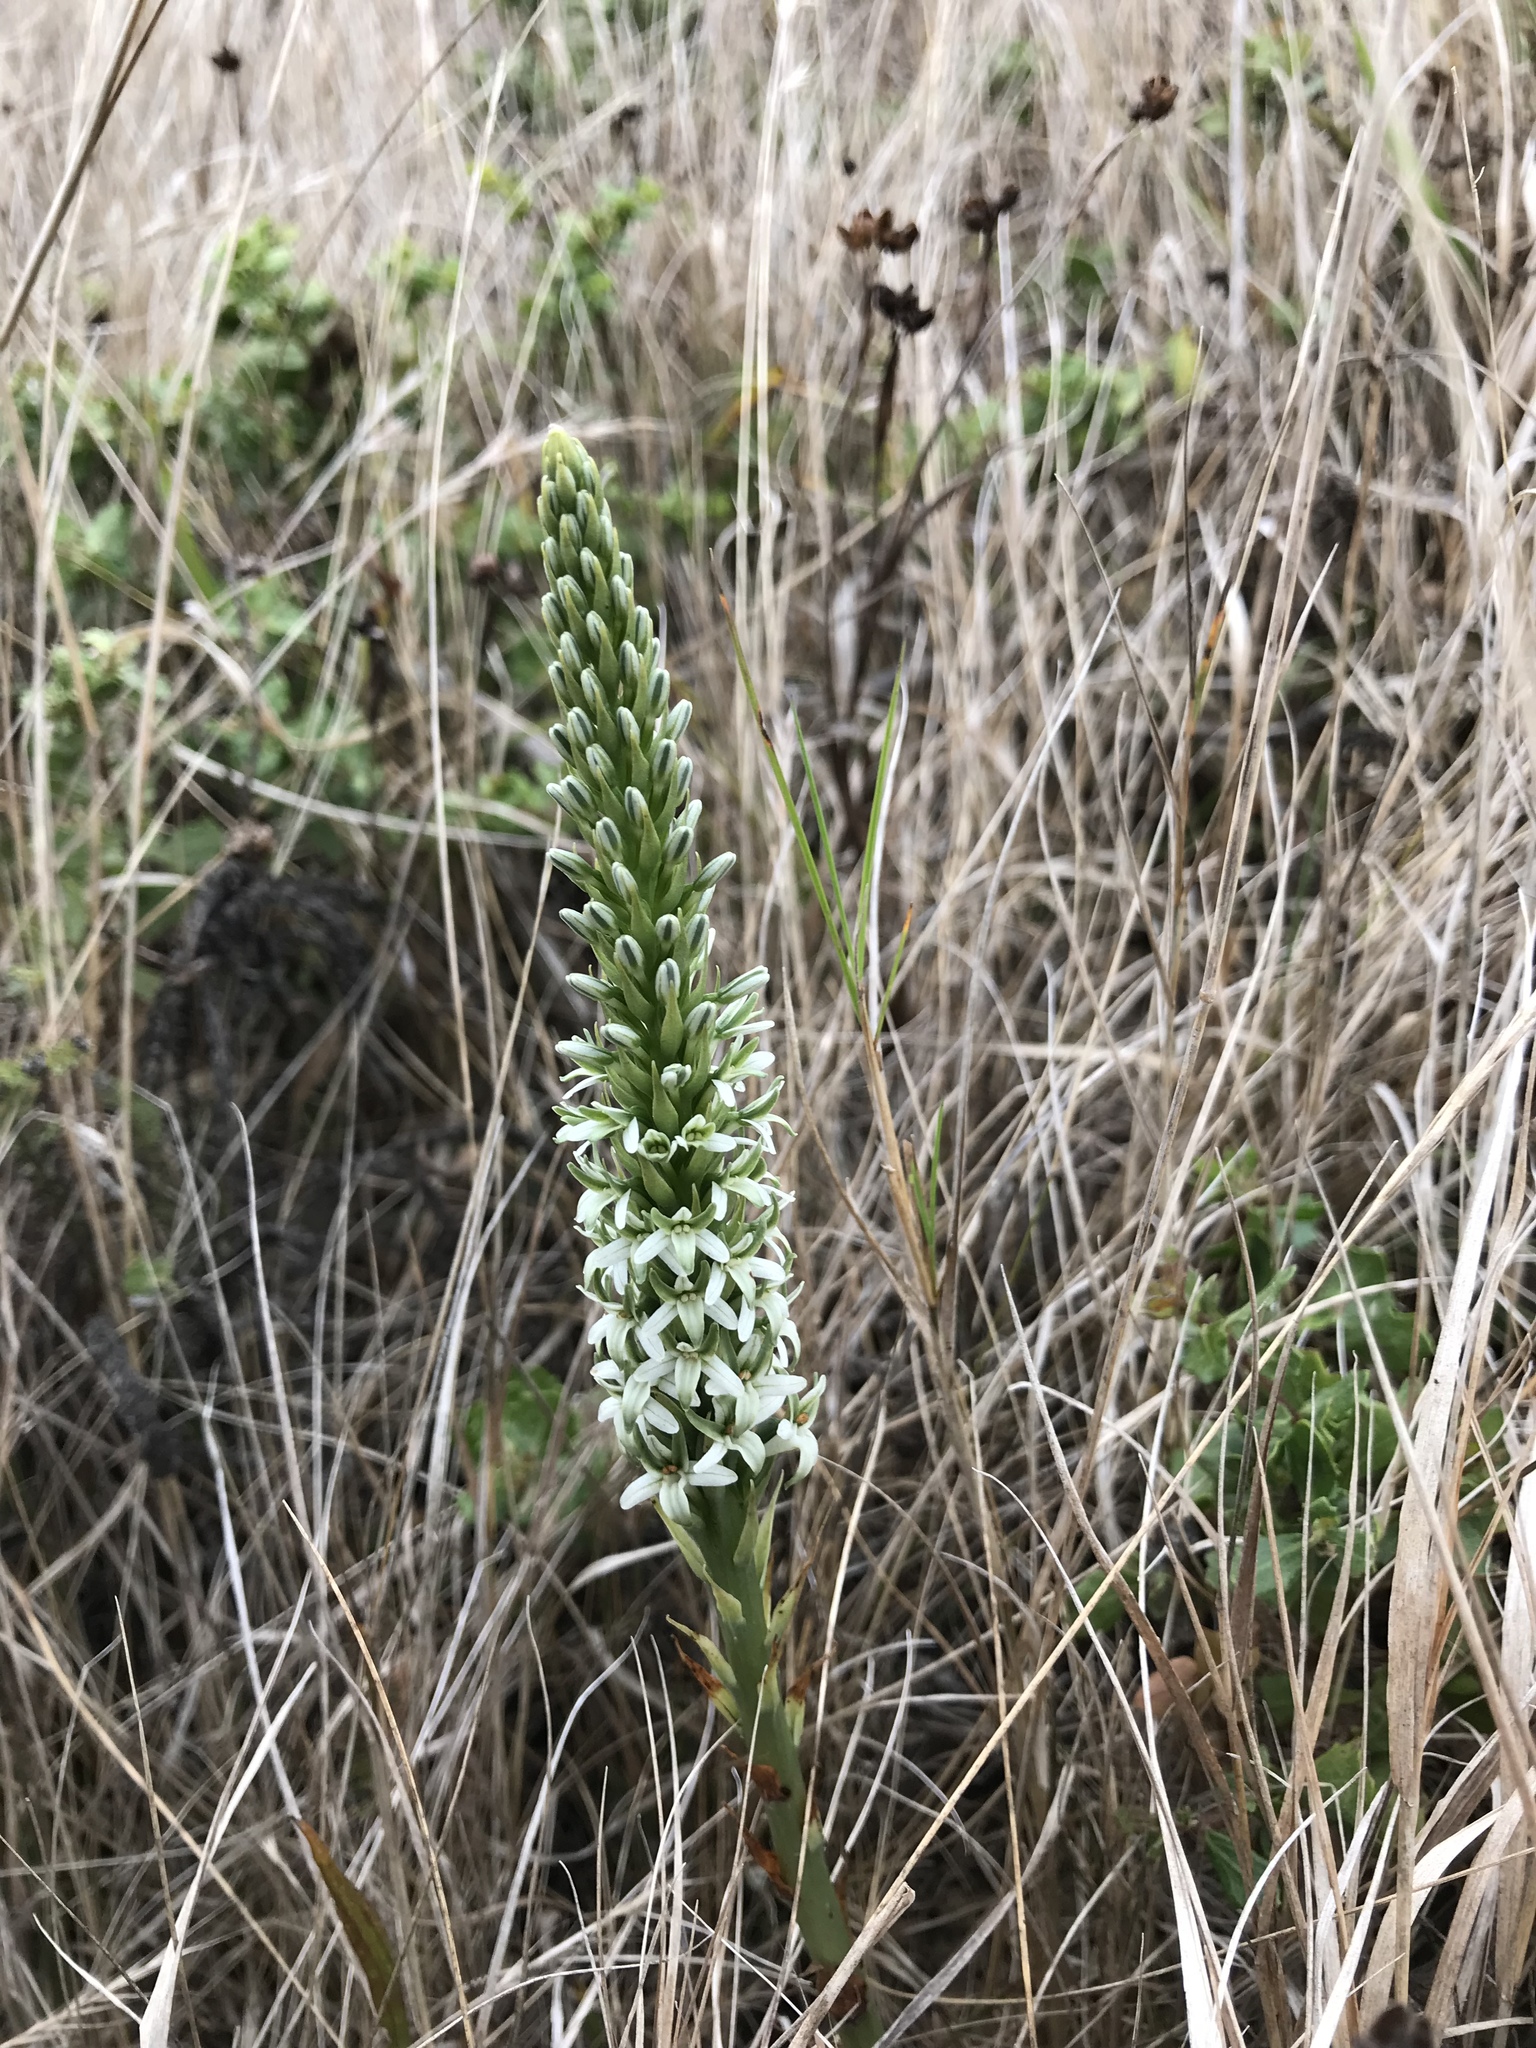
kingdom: Plantae
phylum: Tracheophyta
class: Liliopsida
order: Asparagales
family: Orchidaceae
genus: Platanthera
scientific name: Platanthera elegans
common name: Coast piperia
